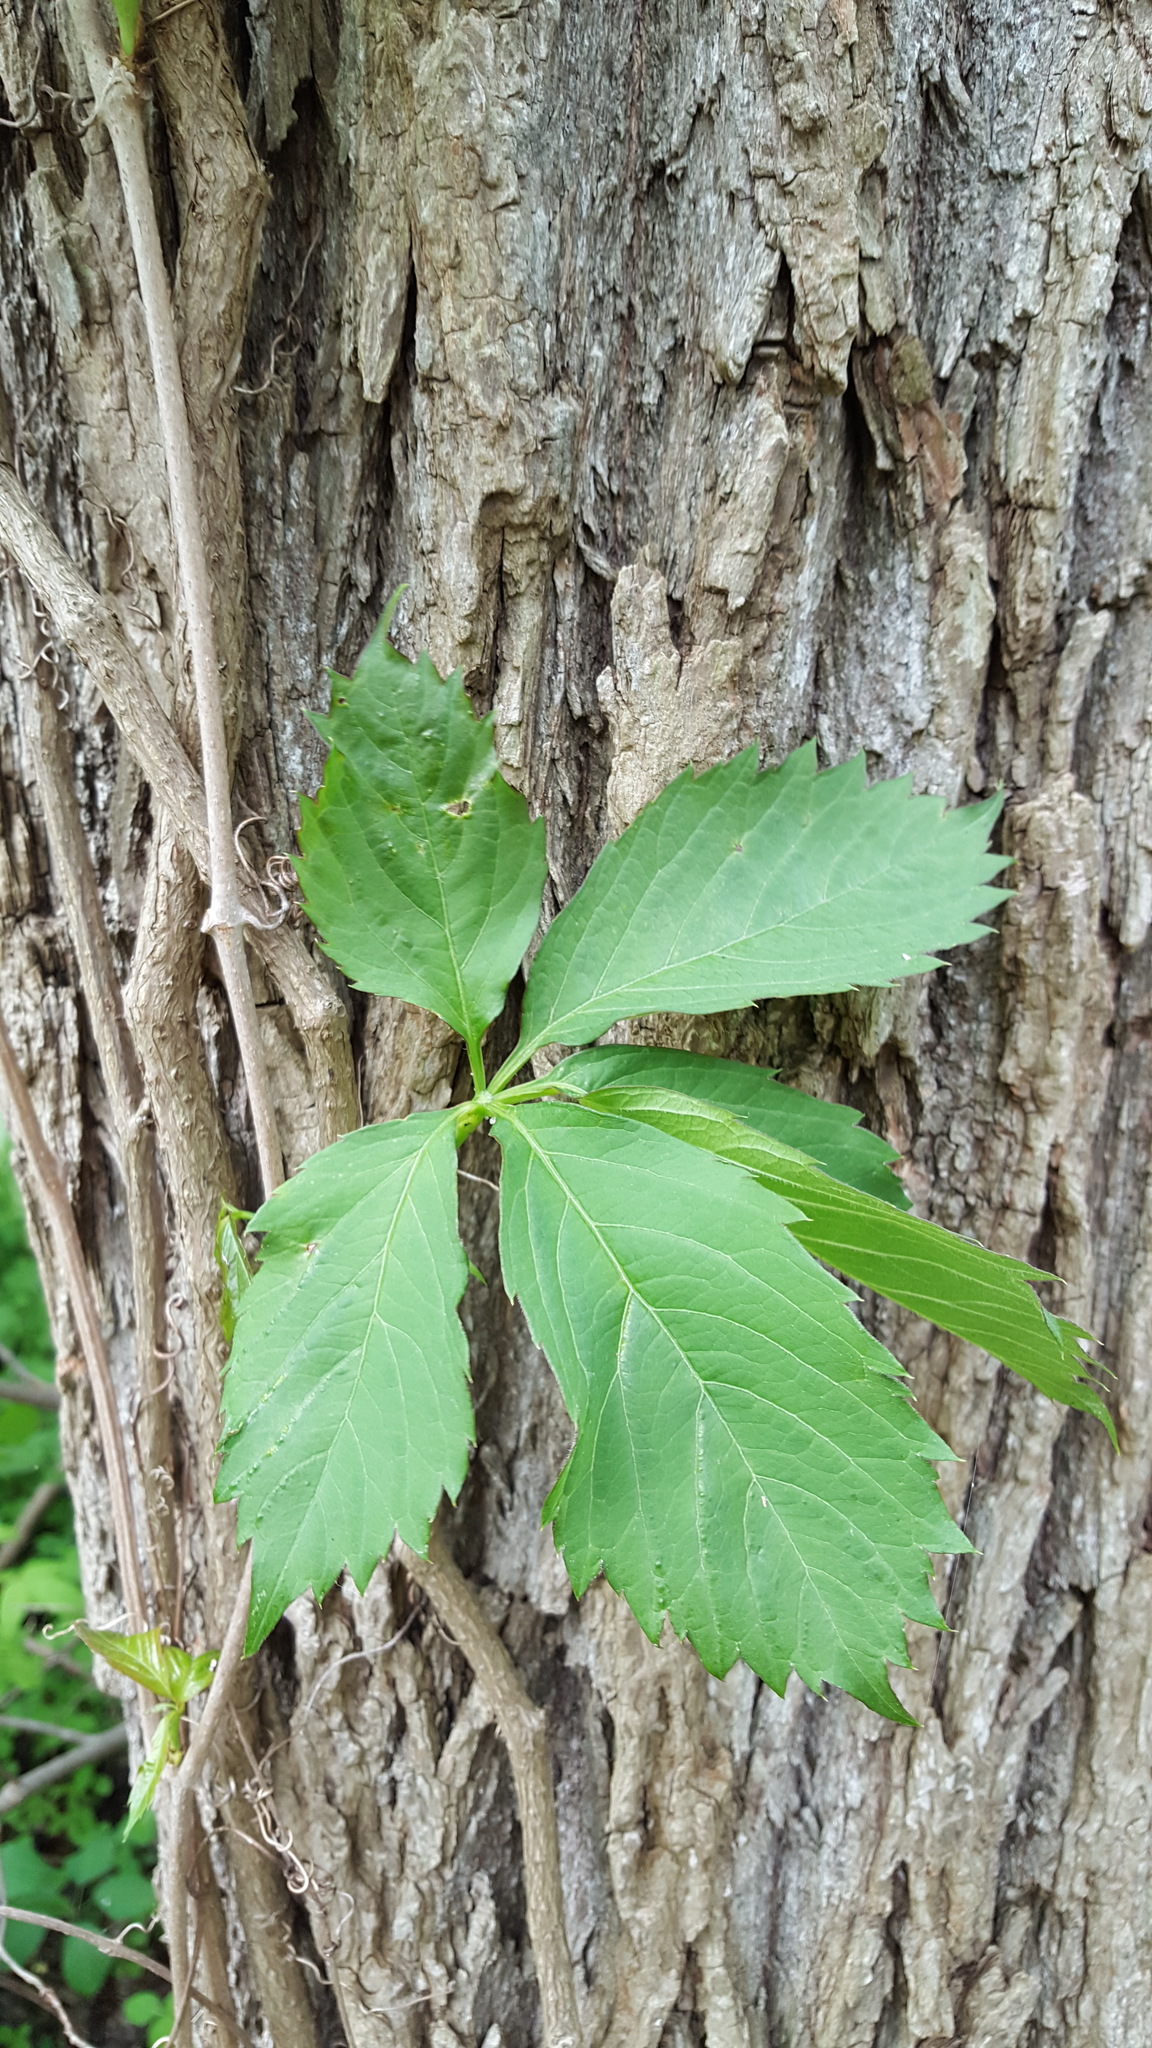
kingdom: Plantae
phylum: Tracheophyta
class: Magnoliopsida
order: Vitales
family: Vitaceae
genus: Parthenocissus
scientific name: Parthenocissus quinquefolia
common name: Virginia-creeper
